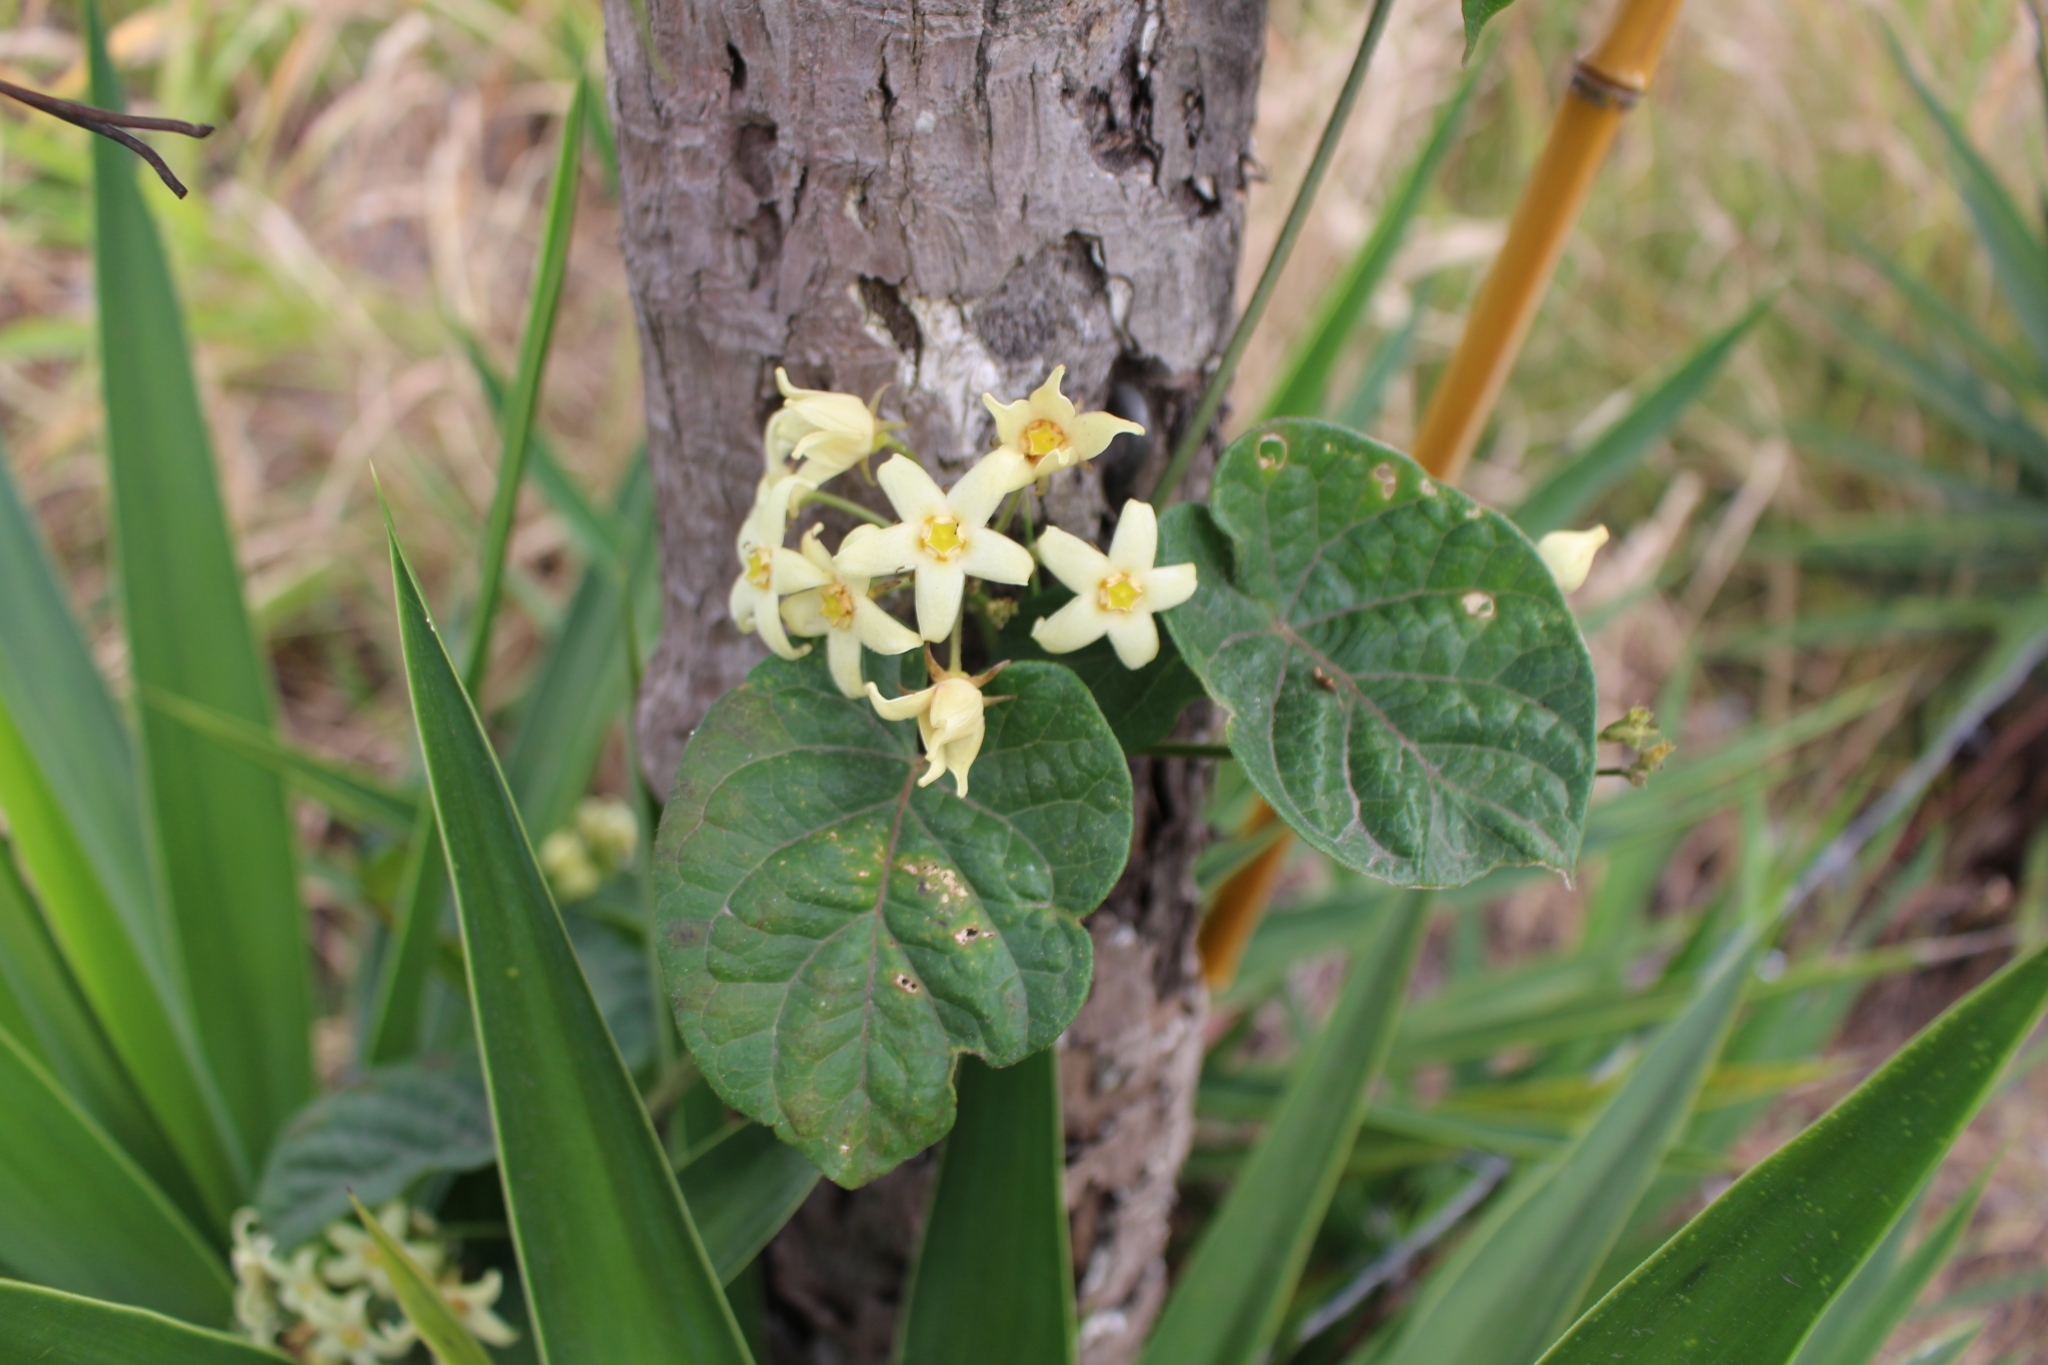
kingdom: Plantae
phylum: Tracheophyta
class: Magnoliopsida
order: Gentianales
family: Apocynaceae
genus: Gonolobus
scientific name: Gonolobus edulis
